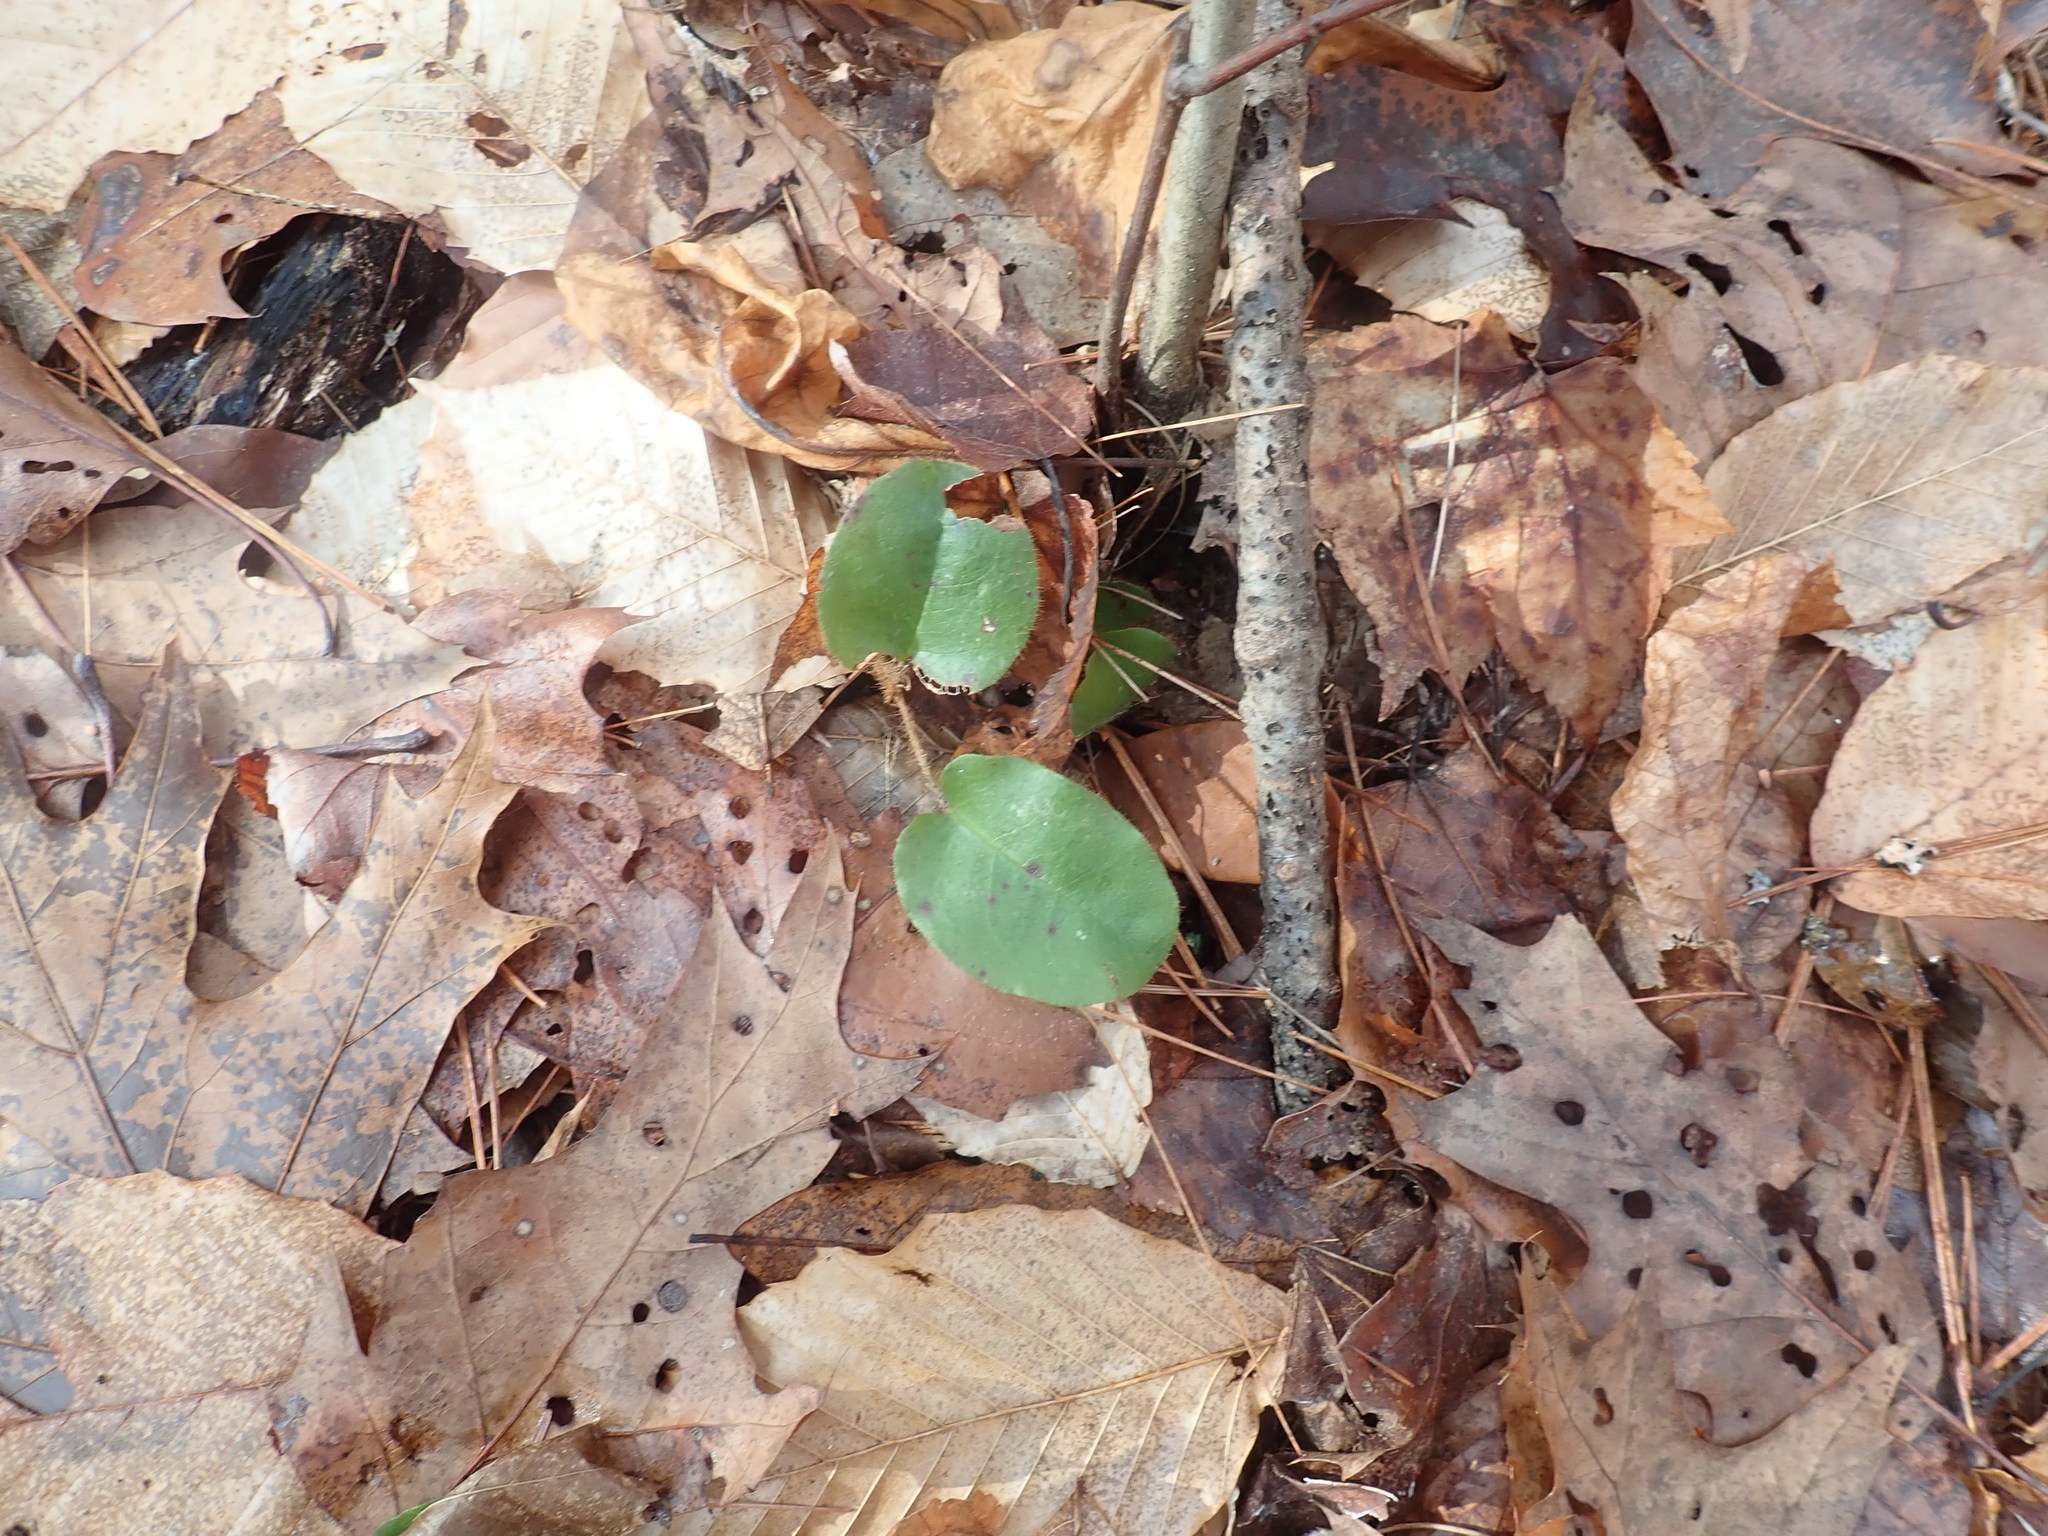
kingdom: Plantae
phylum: Tracheophyta
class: Magnoliopsida
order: Ericales
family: Ericaceae
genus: Epigaea
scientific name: Epigaea repens
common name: Gravelroot
